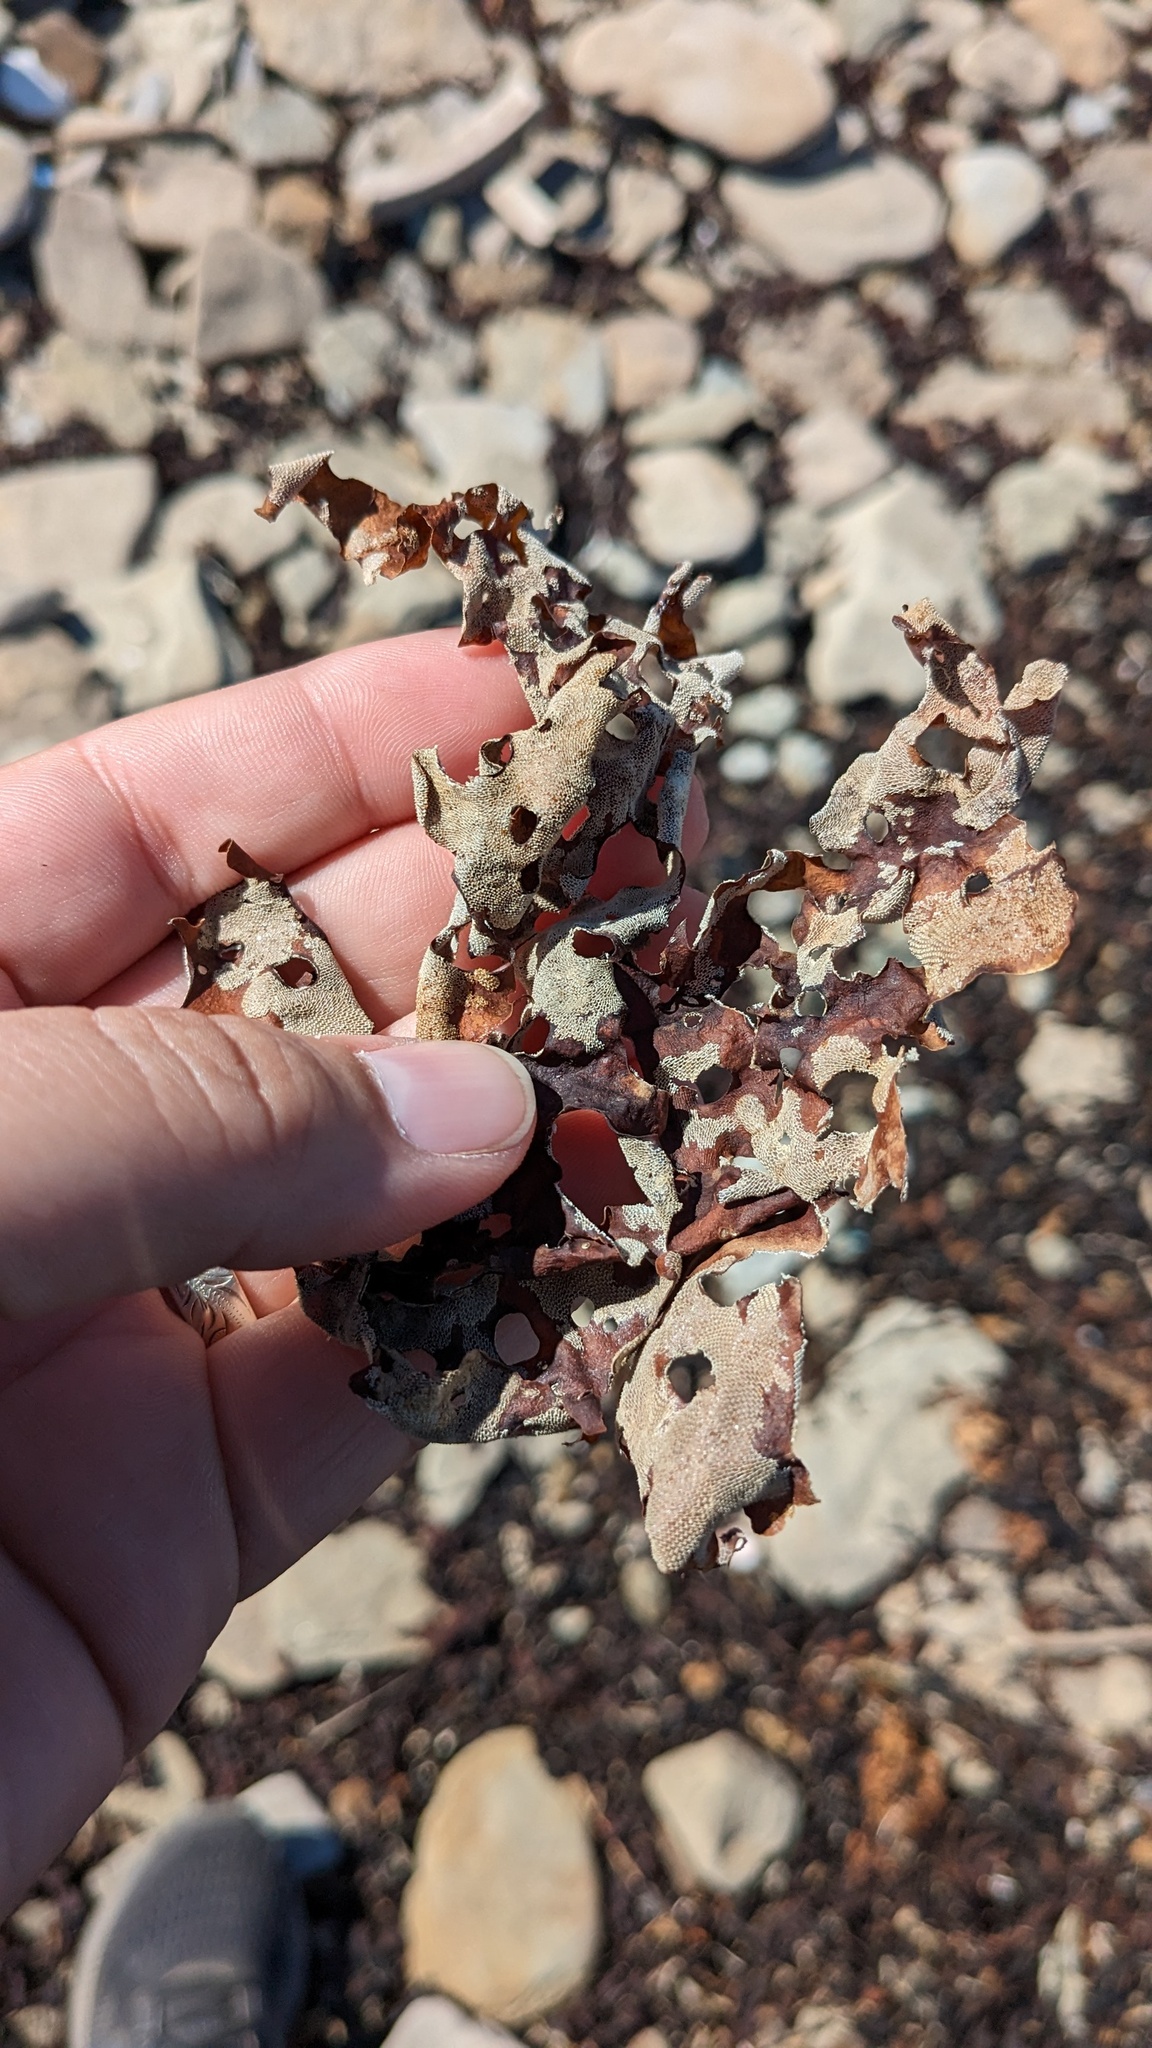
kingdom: Animalia
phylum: Bryozoa
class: Gymnolaemata
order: Cheilostomatida
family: Membraniporidae
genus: Membranipora
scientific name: Membranipora membranacea
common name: Sea mat
